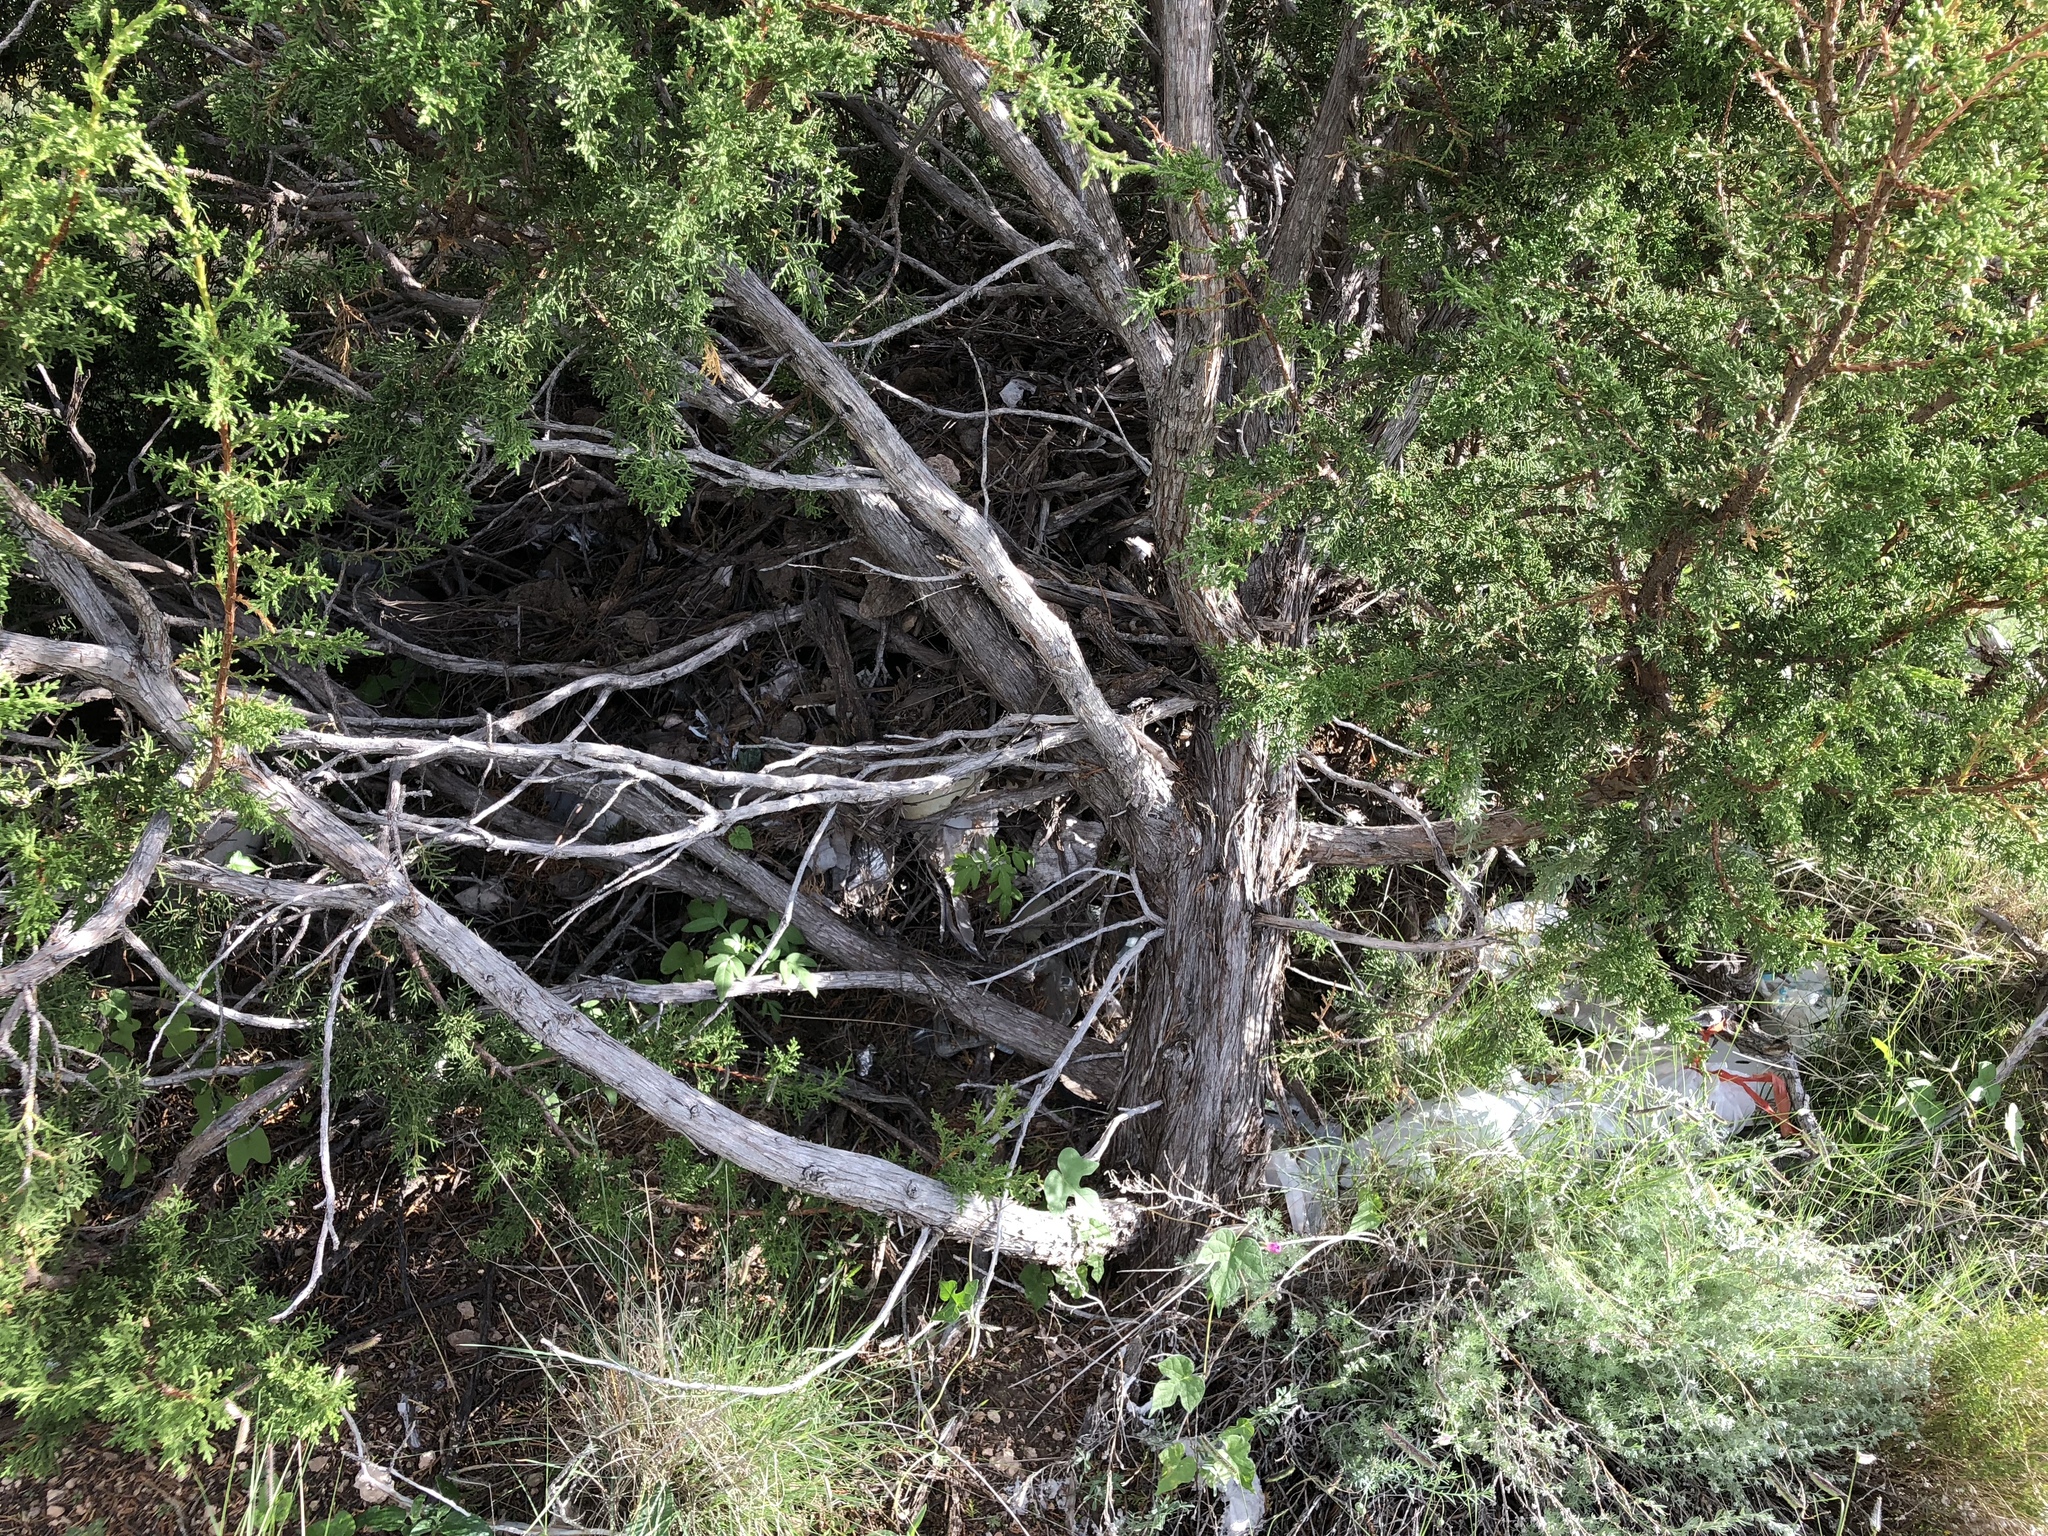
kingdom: Plantae
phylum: Tracheophyta
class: Pinopsida
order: Pinales
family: Cupressaceae
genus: Juniperus
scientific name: Juniperus monosperma
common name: One-seed juniper
